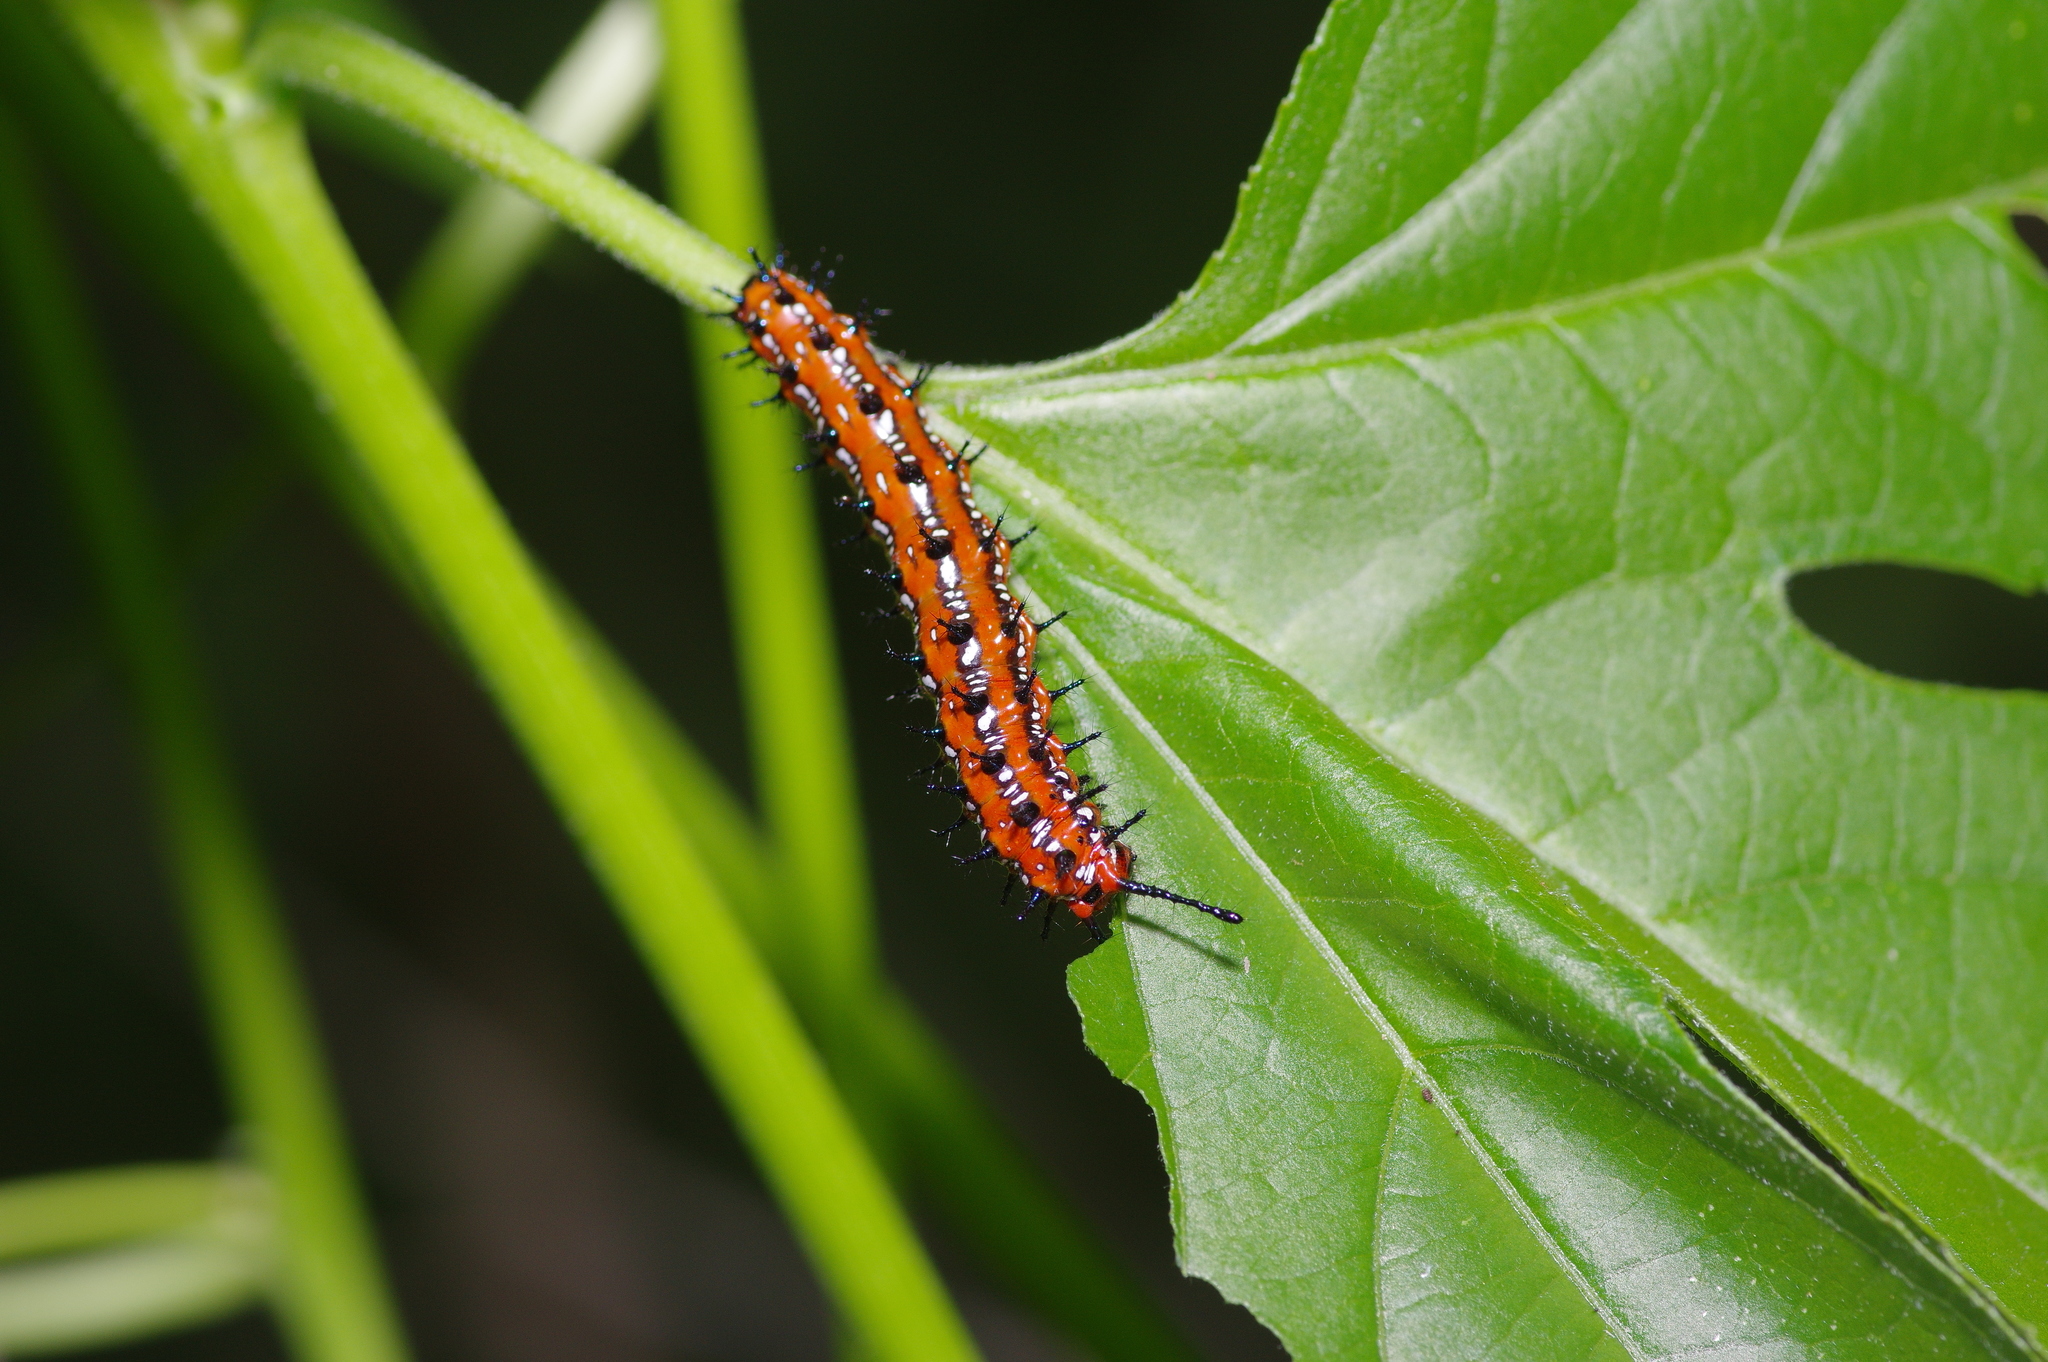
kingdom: Animalia
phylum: Arthropoda
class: Insecta
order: Lepidoptera
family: Nymphalidae
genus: Euptoieta
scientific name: Euptoieta claudia
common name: Variegated fritillary
